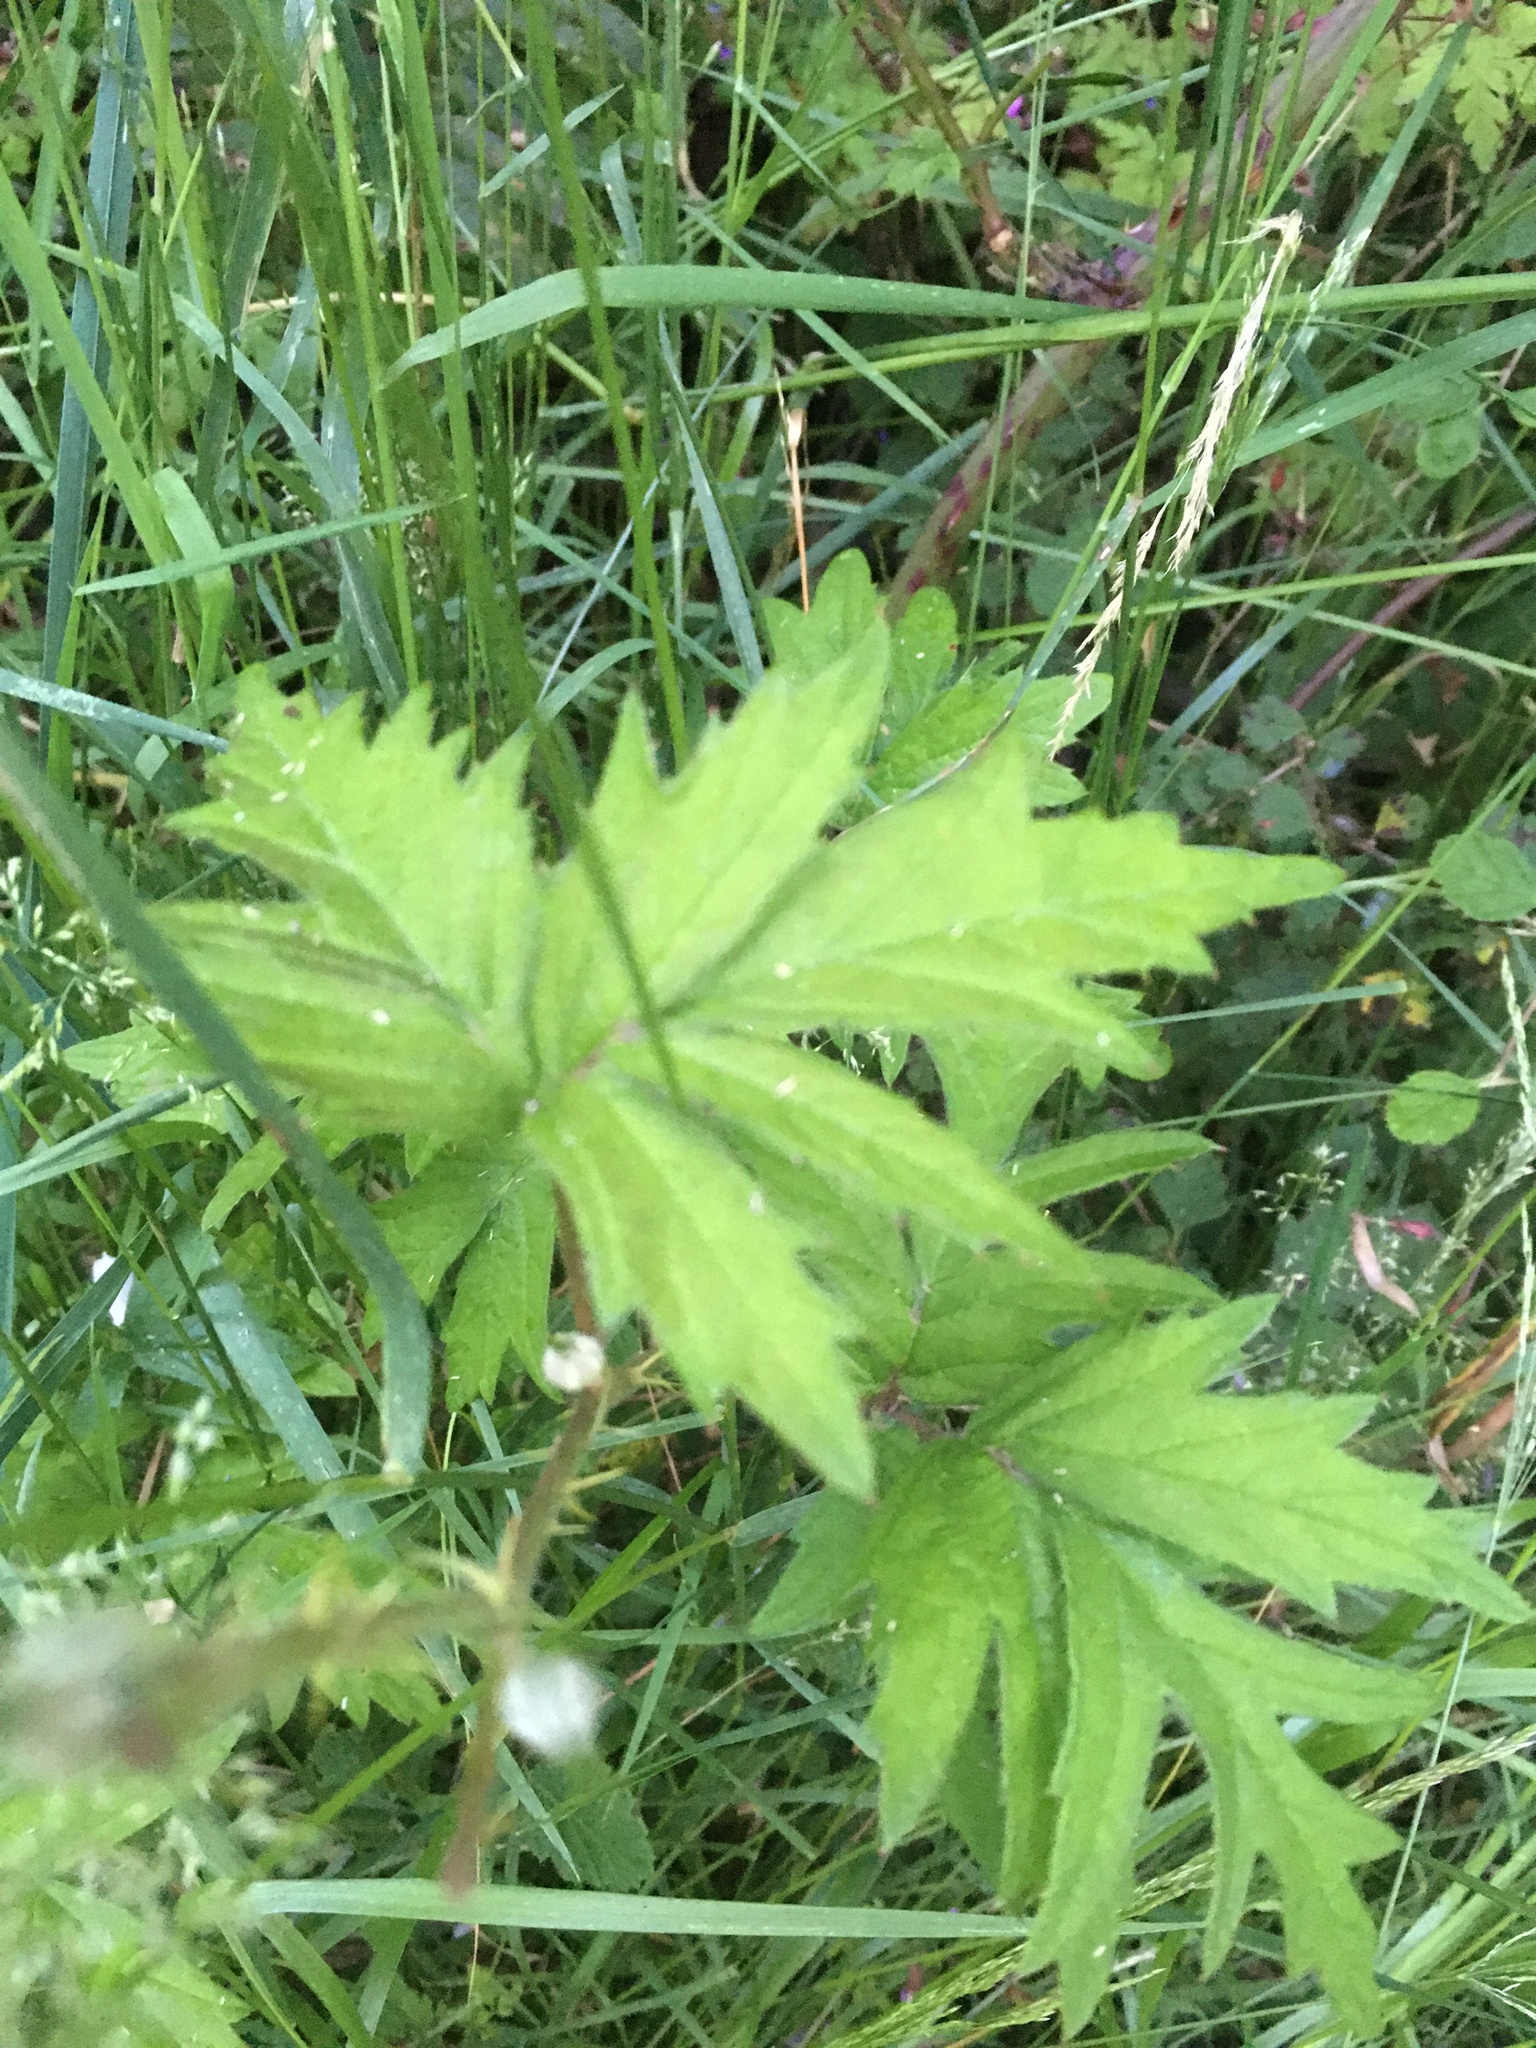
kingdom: Plantae
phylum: Tracheophyta
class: Magnoliopsida
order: Rosales
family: Rosaceae
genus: Rubus
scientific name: Rubus laciniatus
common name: Evergreen blackberry
